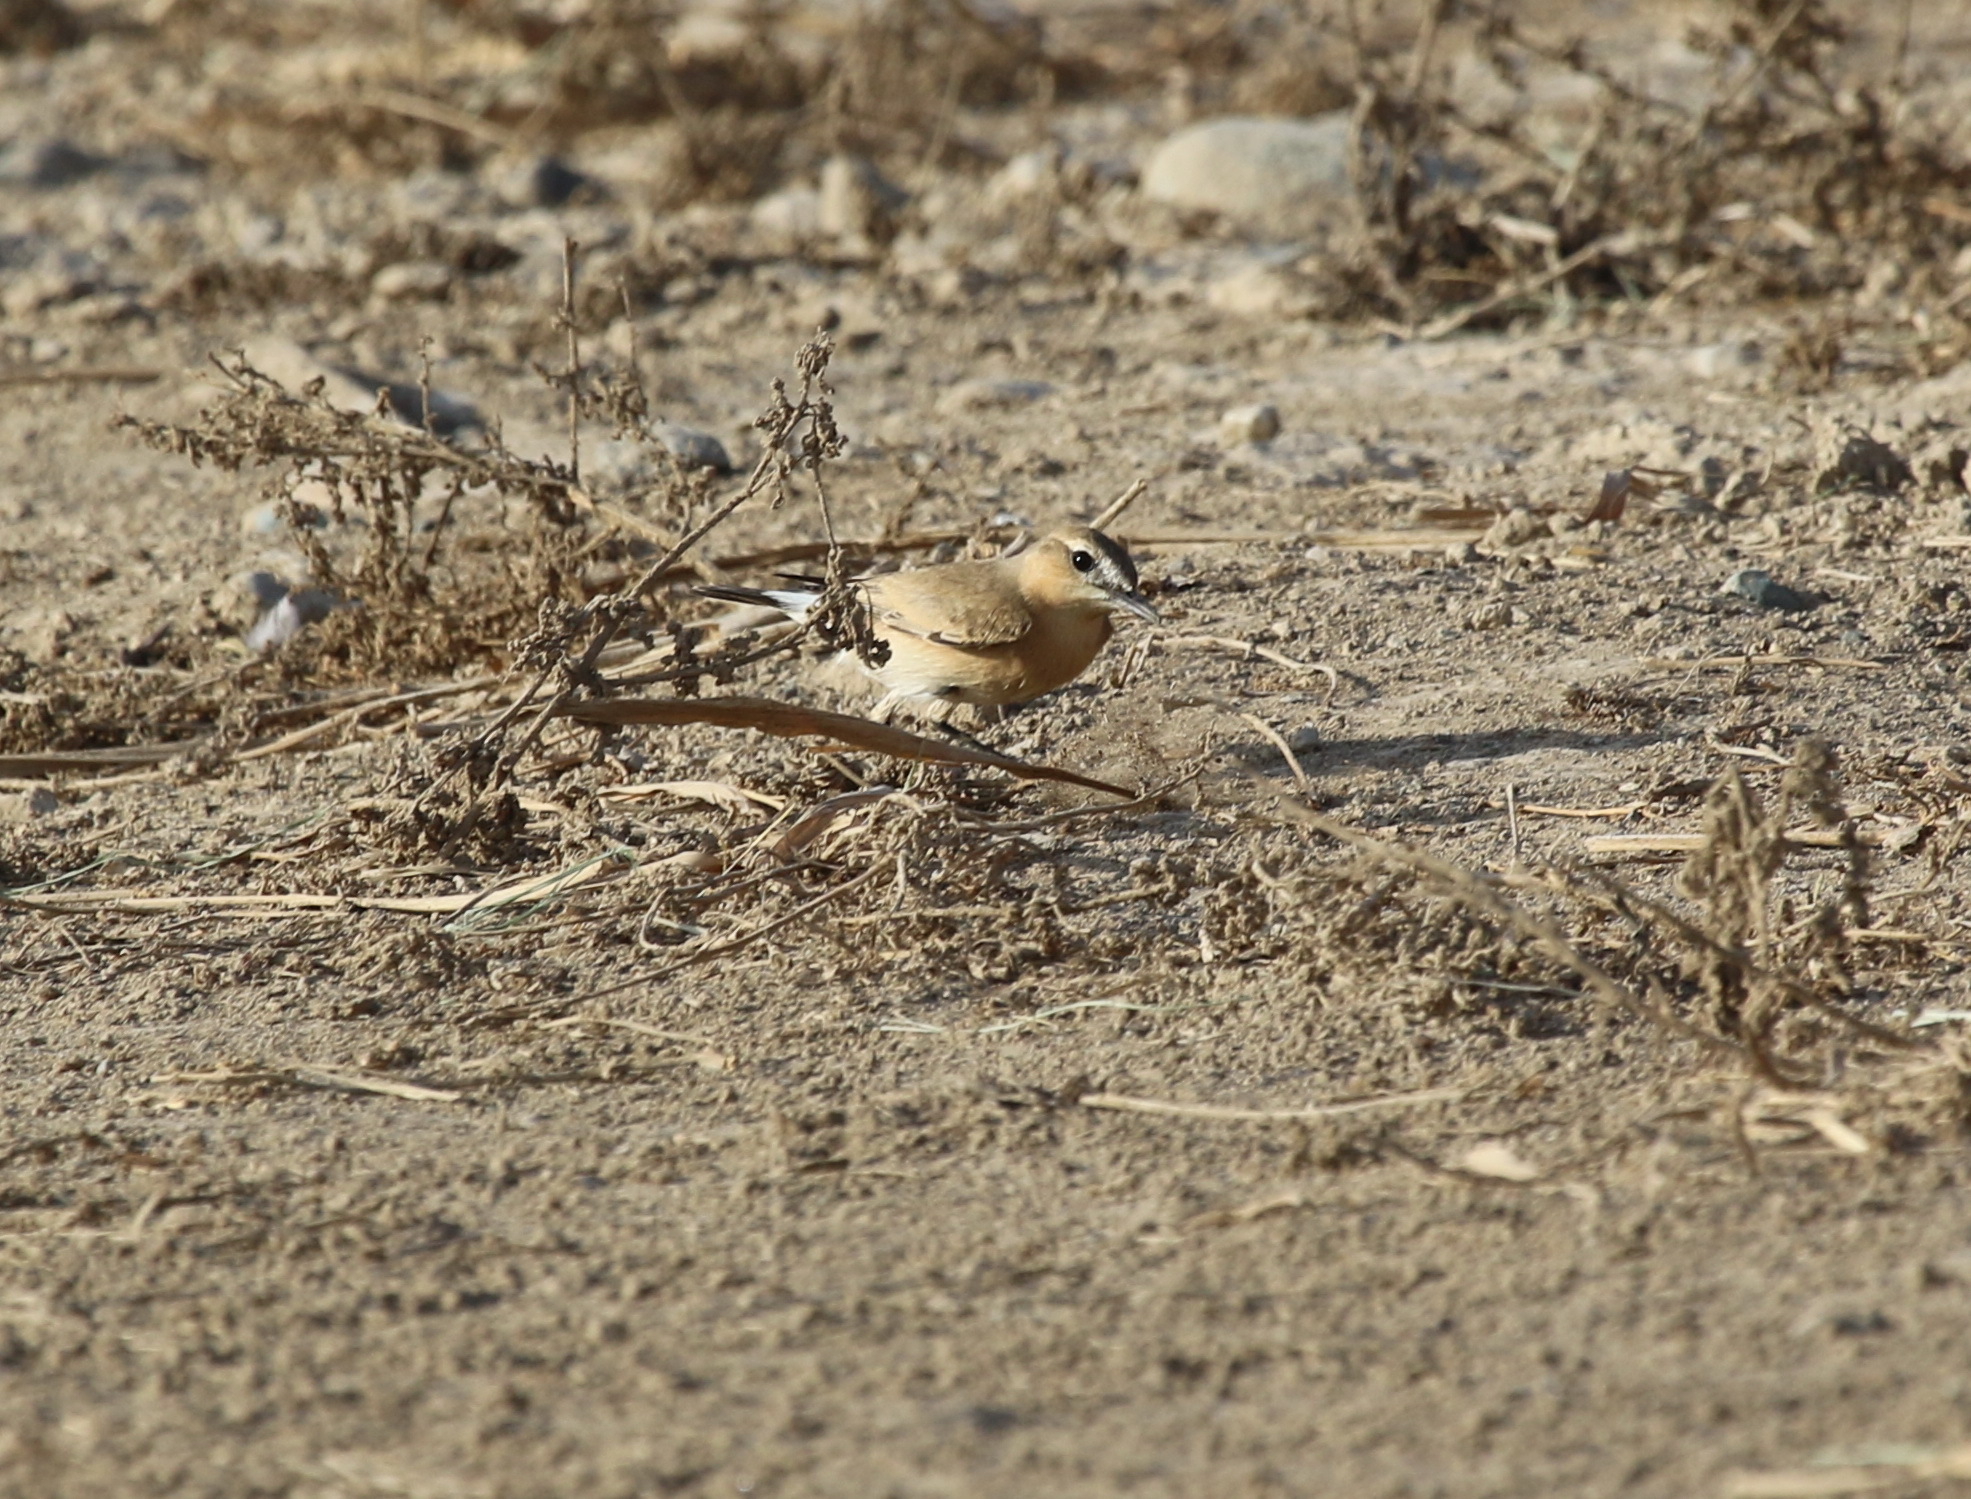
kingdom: Animalia
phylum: Chordata
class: Aves
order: Passeriformes
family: Muscicapidae
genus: Oenanthe
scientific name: Oenanthe isabellina
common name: Isabelline wheatear
